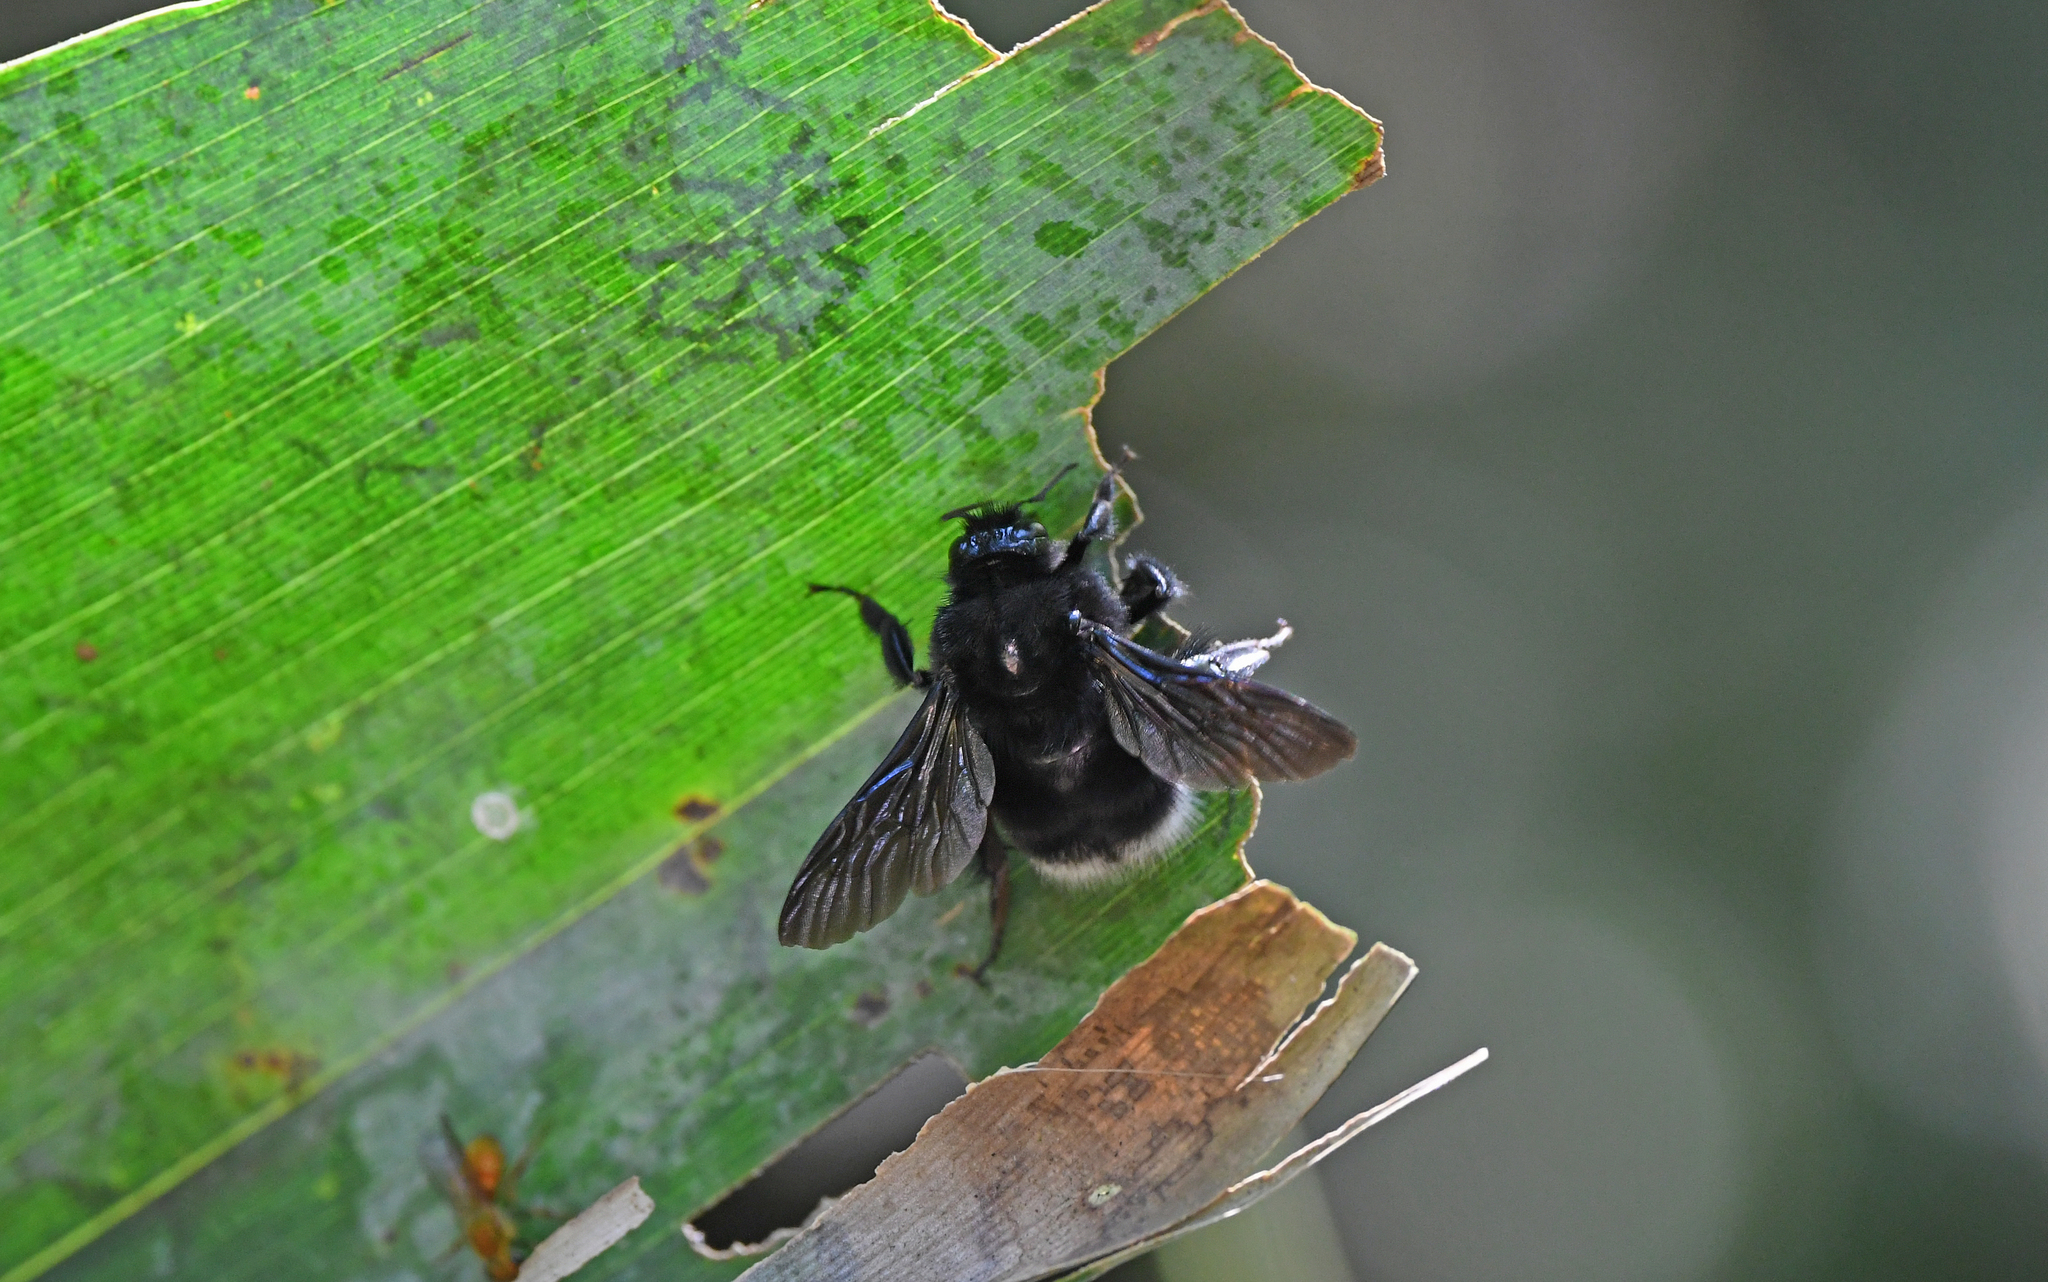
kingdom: Animalia
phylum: Arthropoda
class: Insecta
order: Hymenoptera
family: Apidae
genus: Bombus
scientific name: Bombus melaleucus
